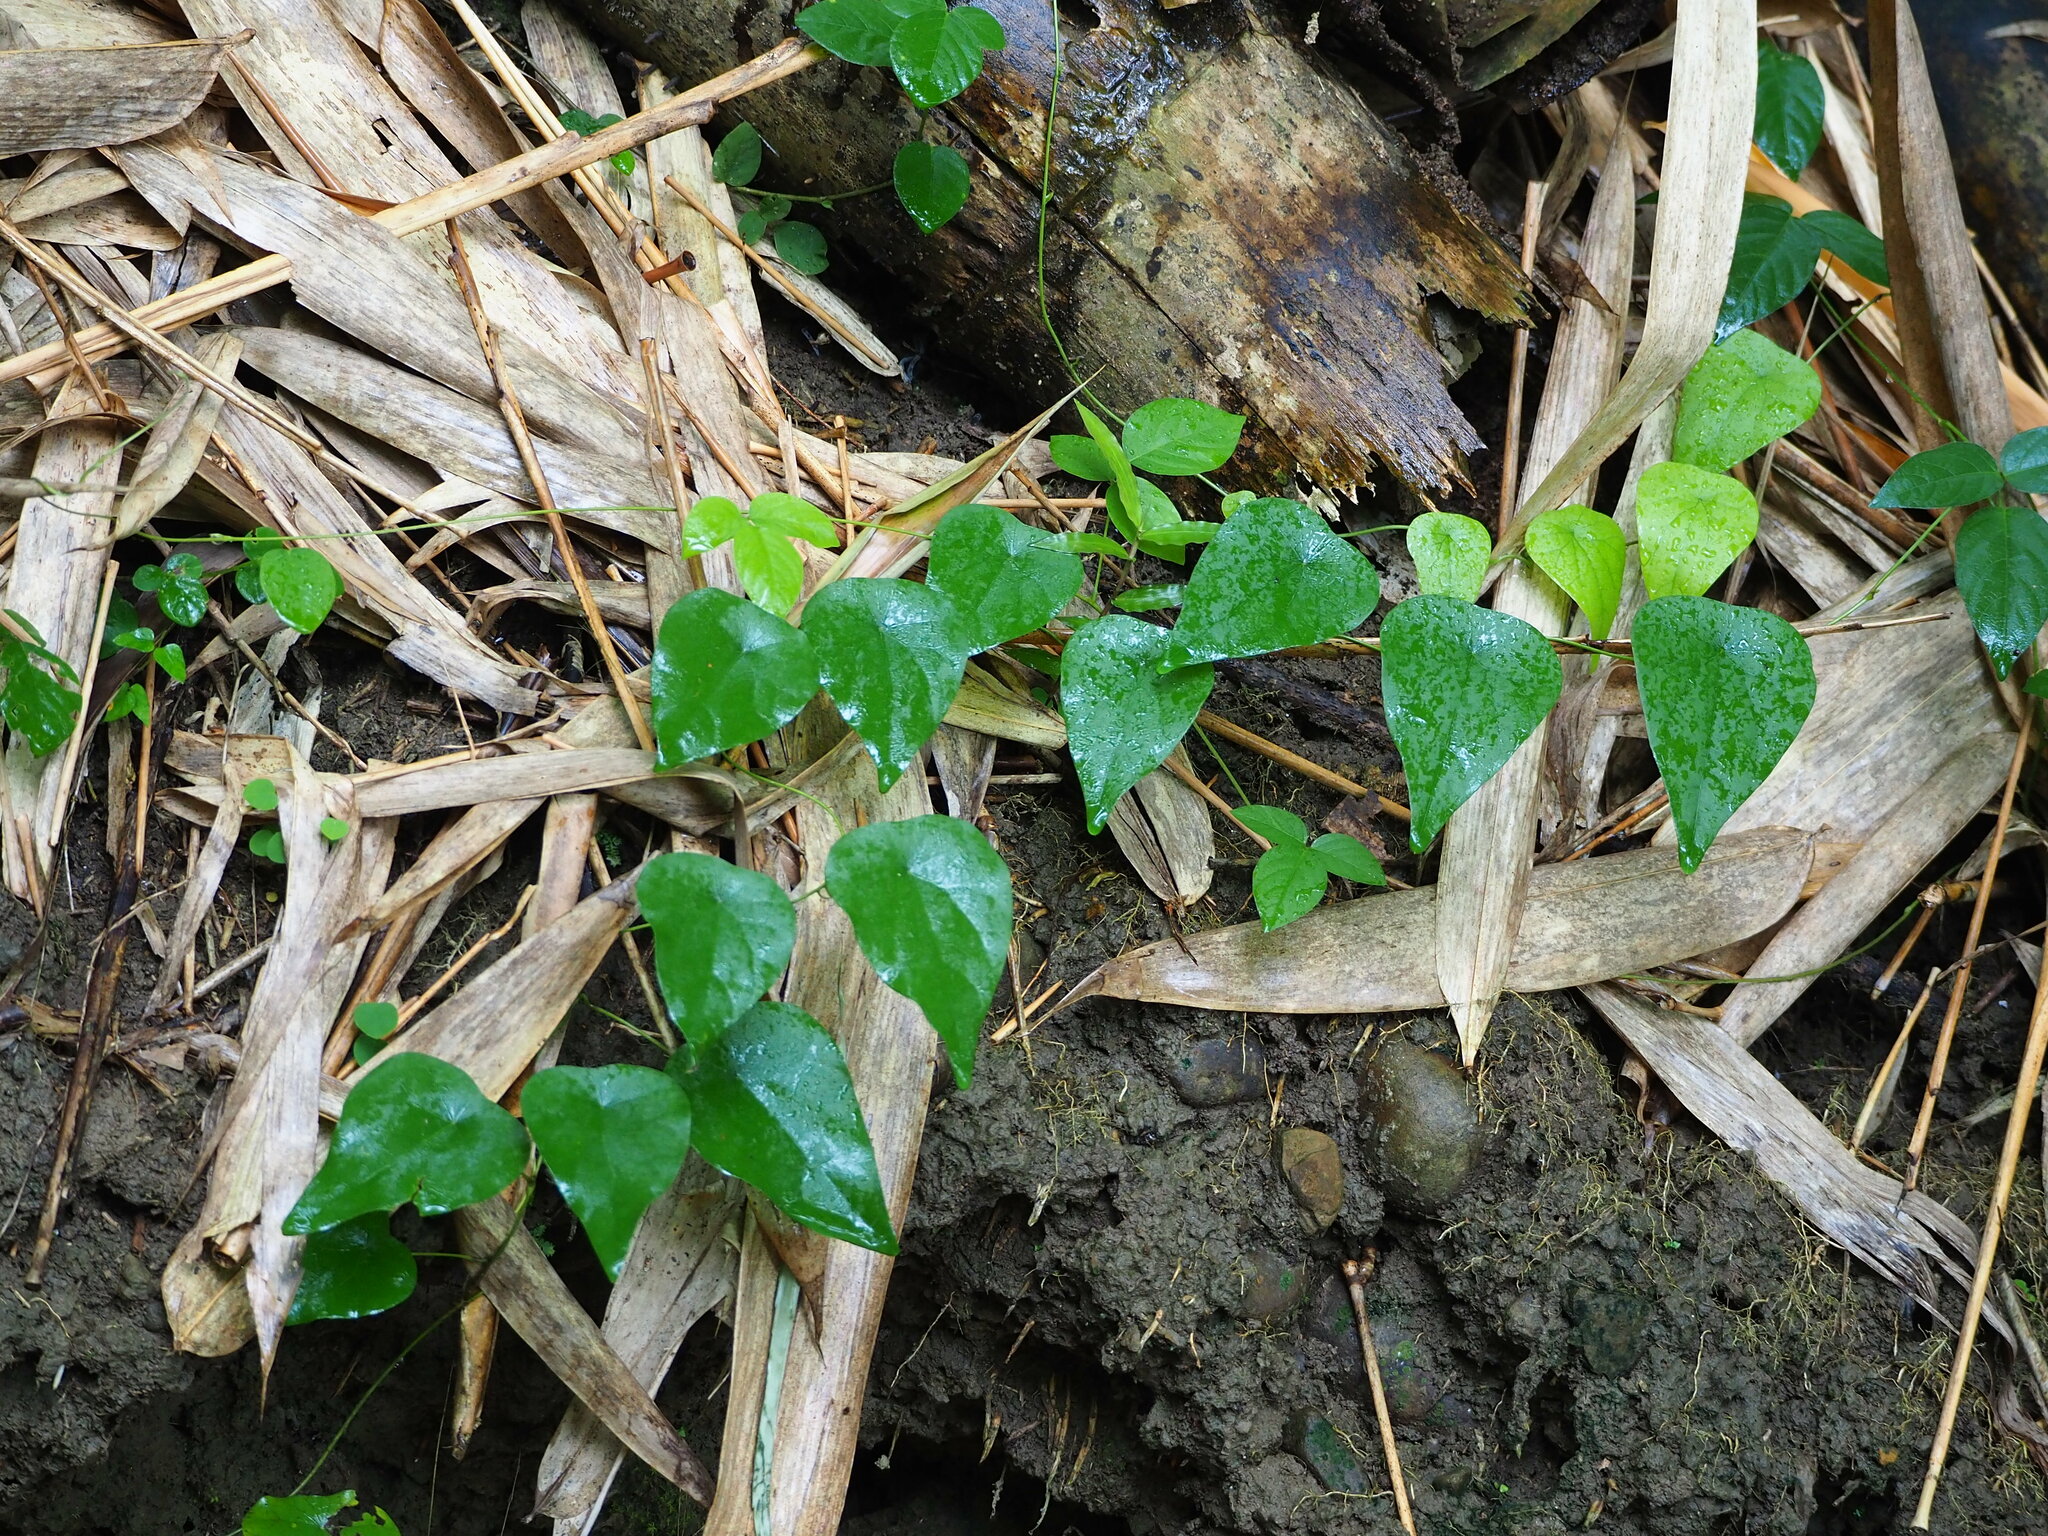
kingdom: Plantae
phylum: Tracheophyta
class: Magnoliopsida
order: Ranunculales
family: Menispermaceae
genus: Stephania
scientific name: Stephania longa
